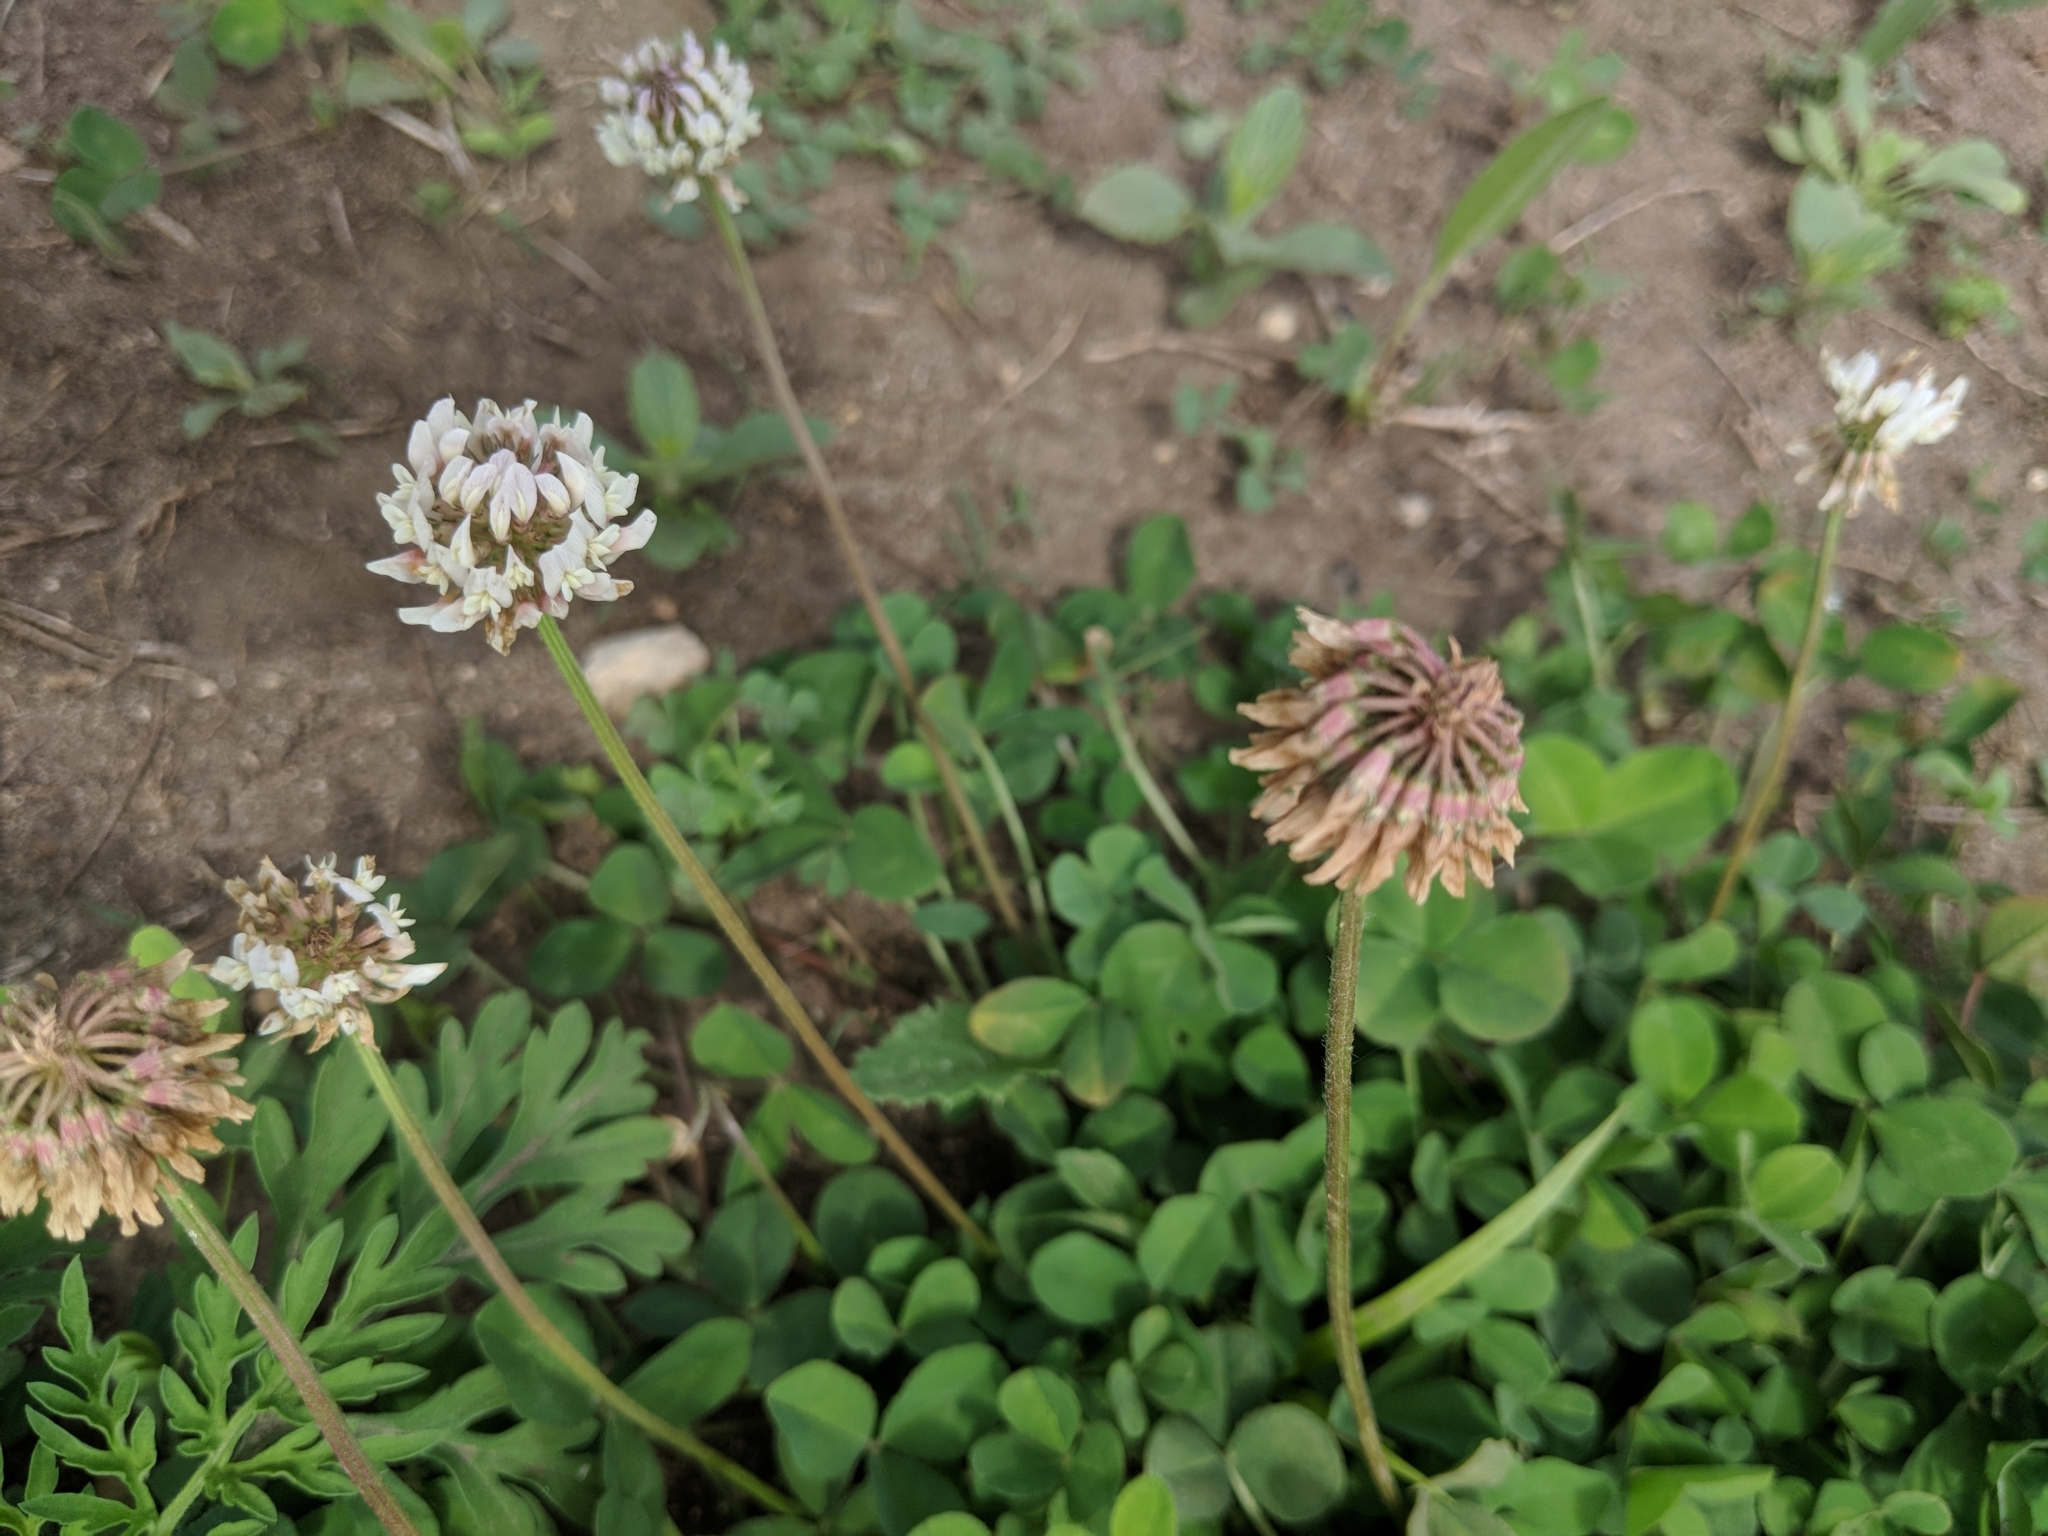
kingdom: Plantae
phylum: Tracheophyta
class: Magnoliopsida
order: Fabales
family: Fabaceae
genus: Trifolium
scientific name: Trifolium repens
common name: White clover
